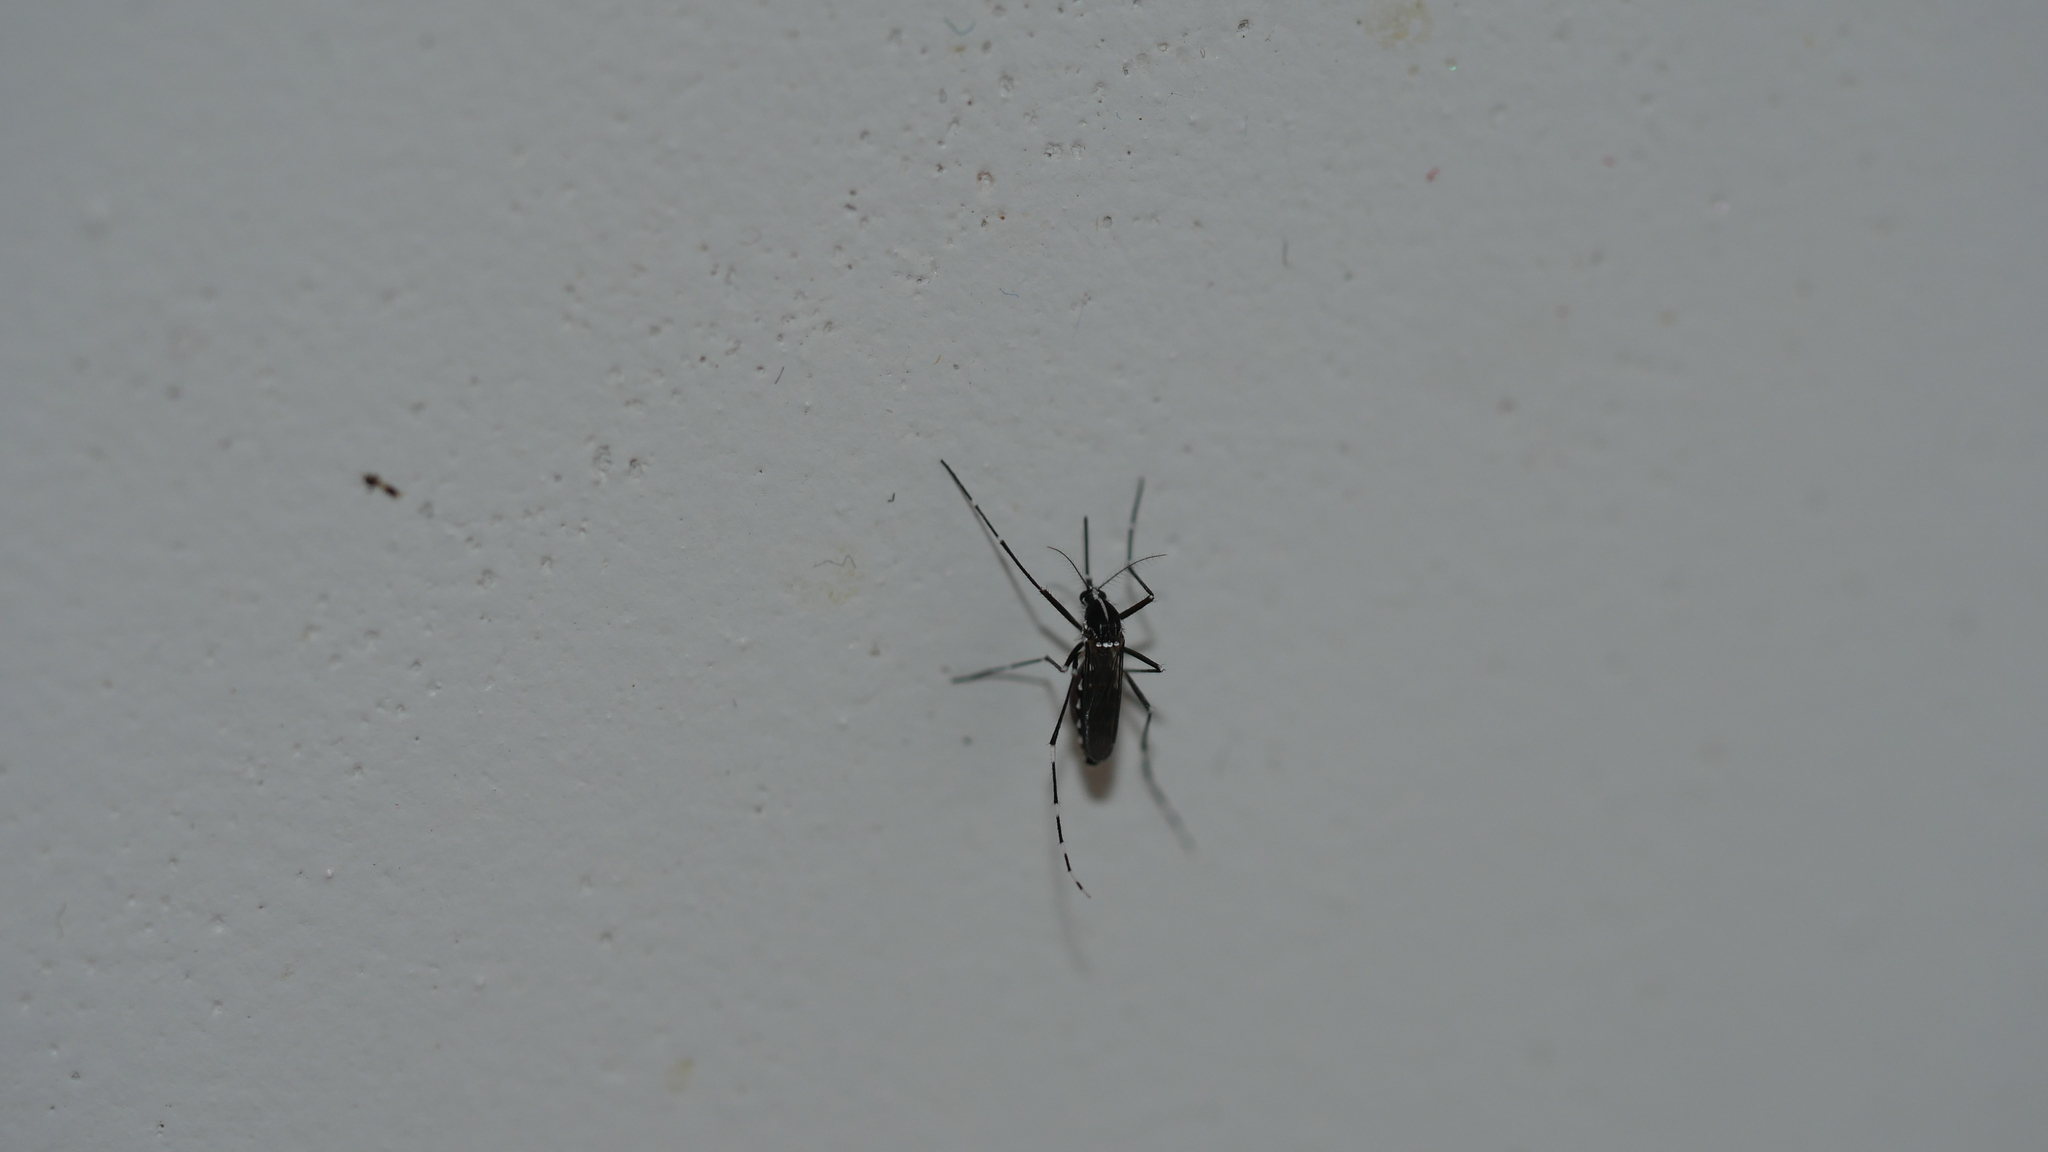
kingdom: Animalia
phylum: Arthropoda
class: Insecta
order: Diptera
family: Culicidae
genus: Aedes
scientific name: Aedes albopictus
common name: Tiger mosquito
